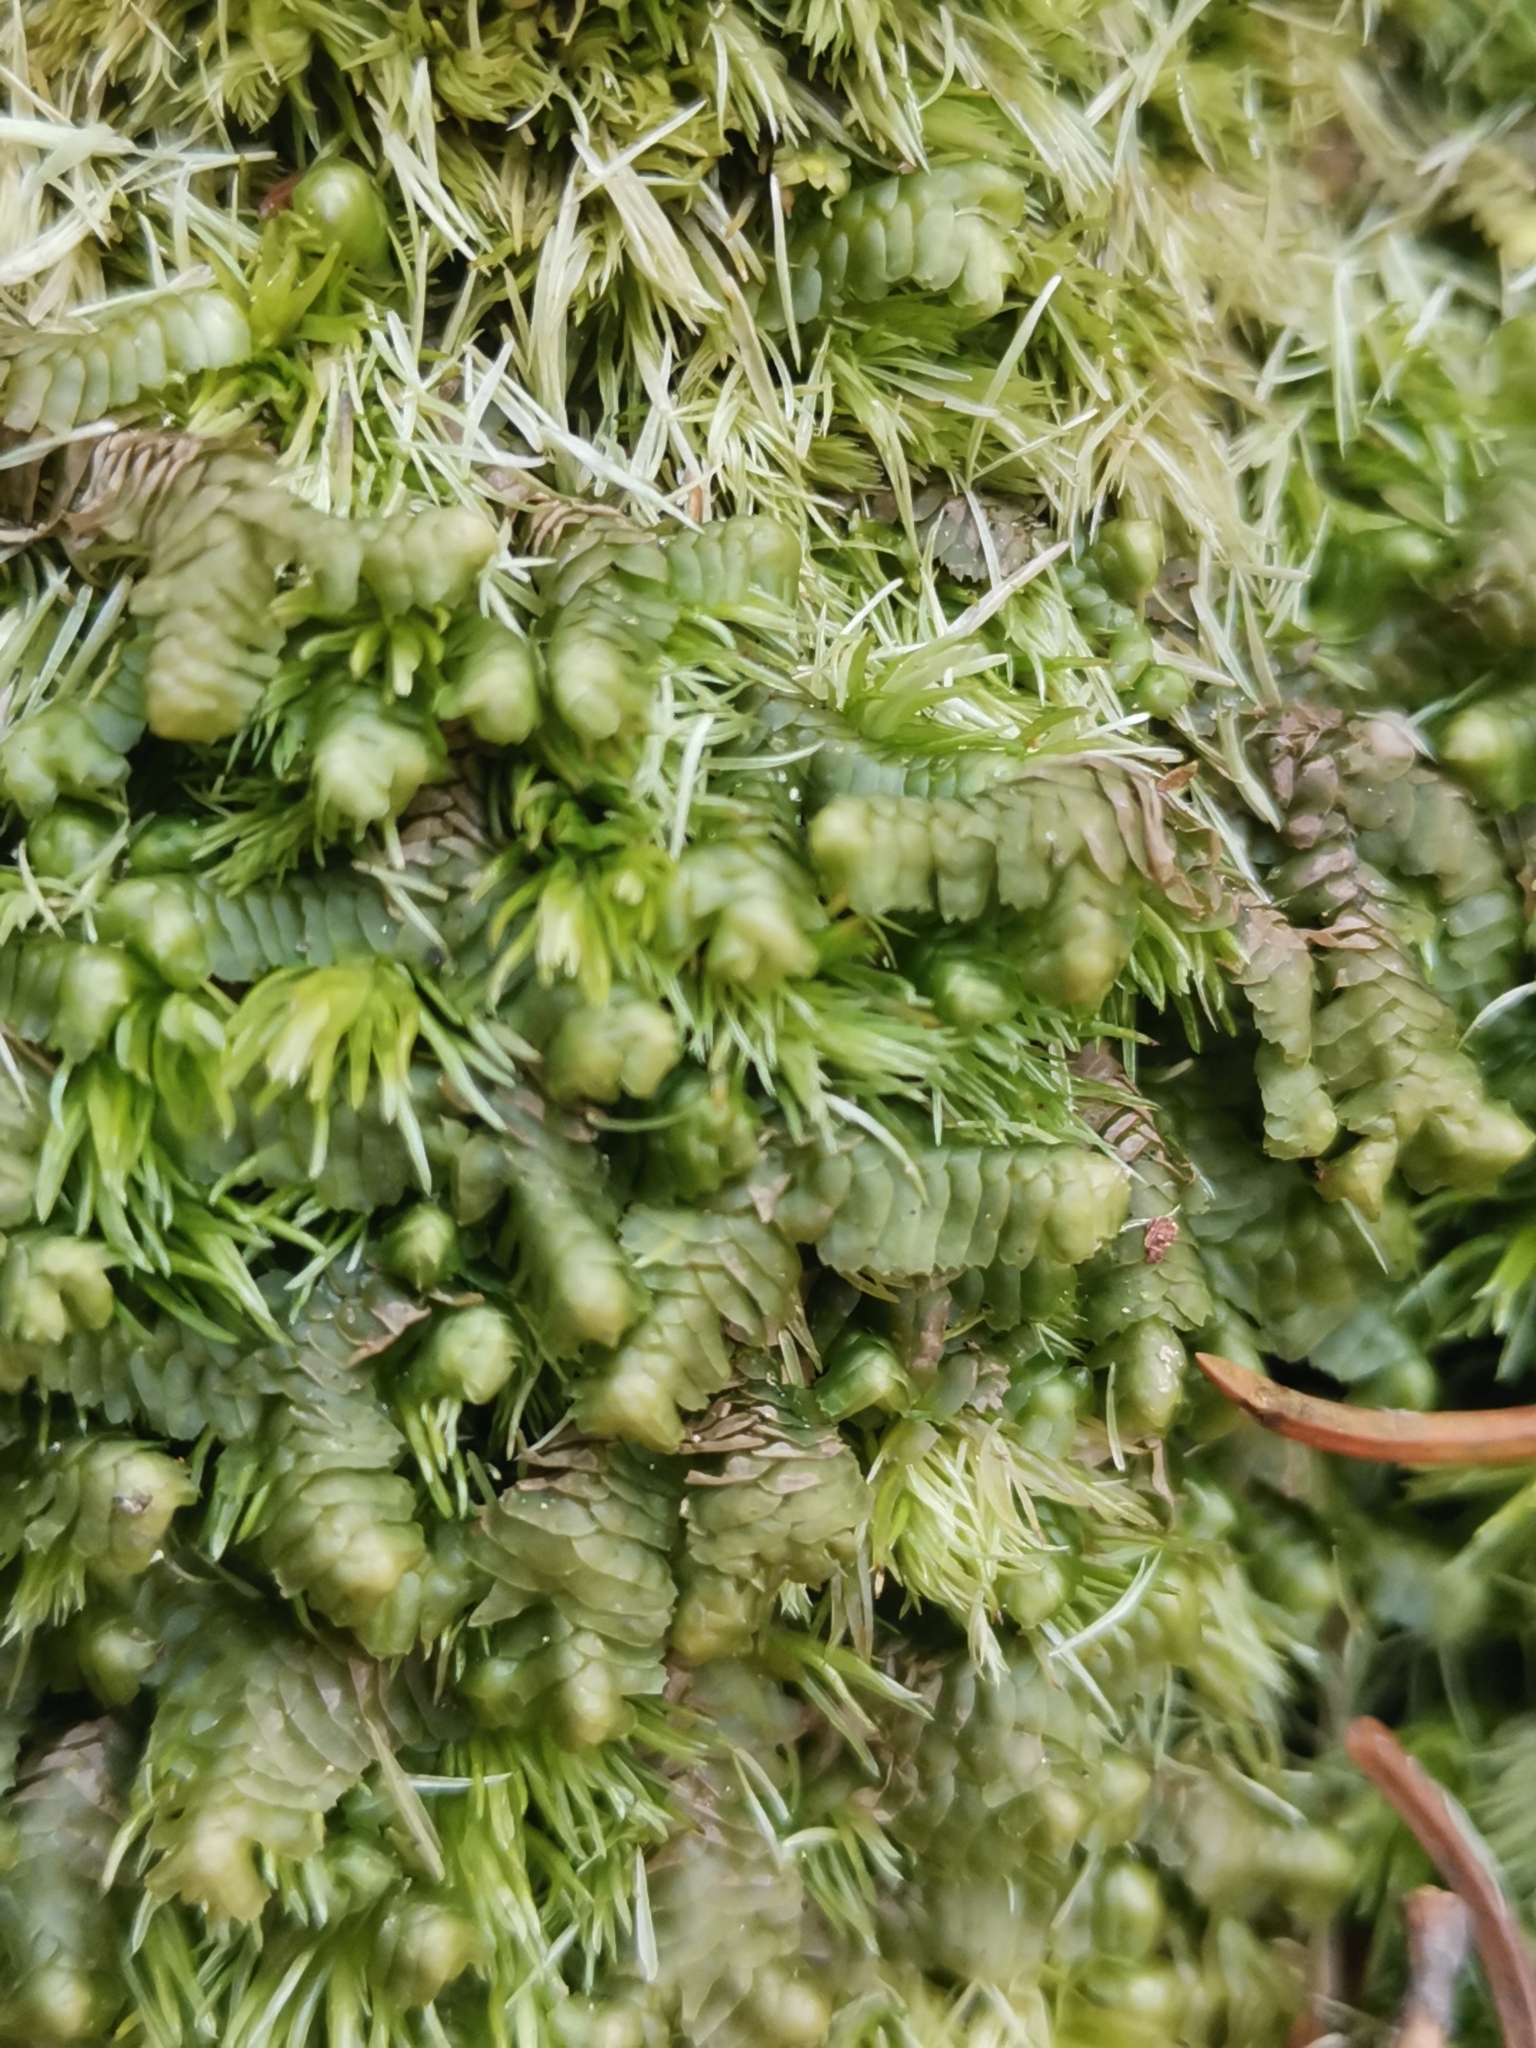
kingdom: Plantae
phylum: Marchantiophyta
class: Jungermanniopsida
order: Jungermanniales
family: Lepidoziaceae
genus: Bazzania
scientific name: Bazzania trilobata
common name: Three-lobed whipwort
